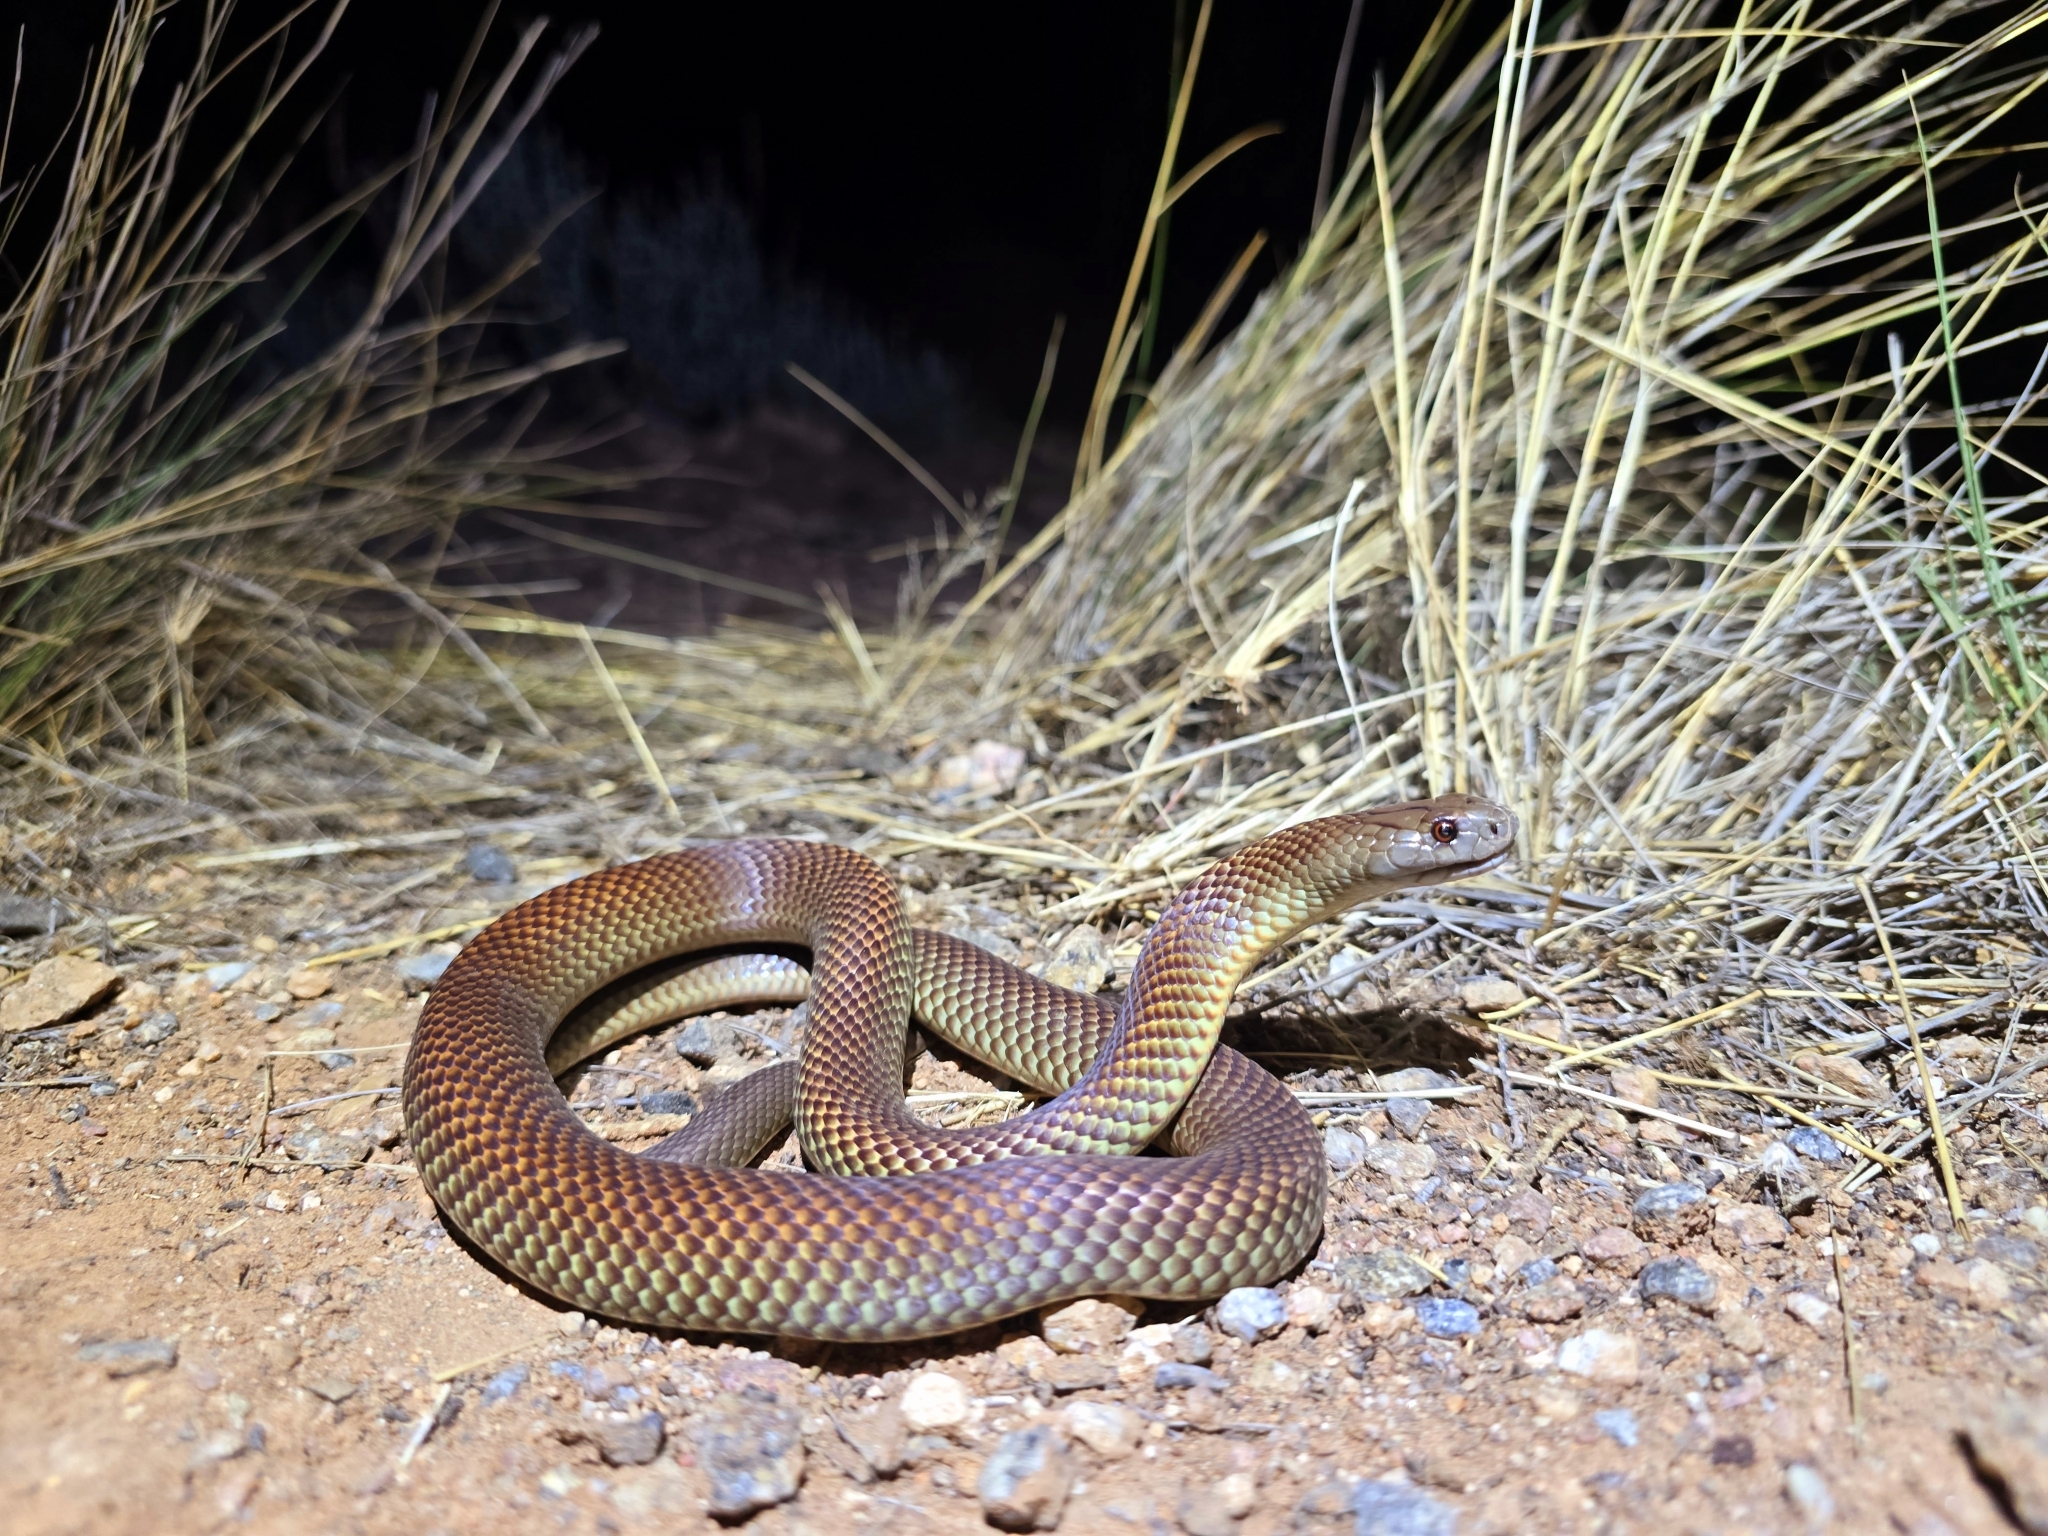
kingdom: Animalia
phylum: Chordata
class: Squamata
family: Elapidae
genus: Pseudechis
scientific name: Pseudechis australis
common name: King brown snake
